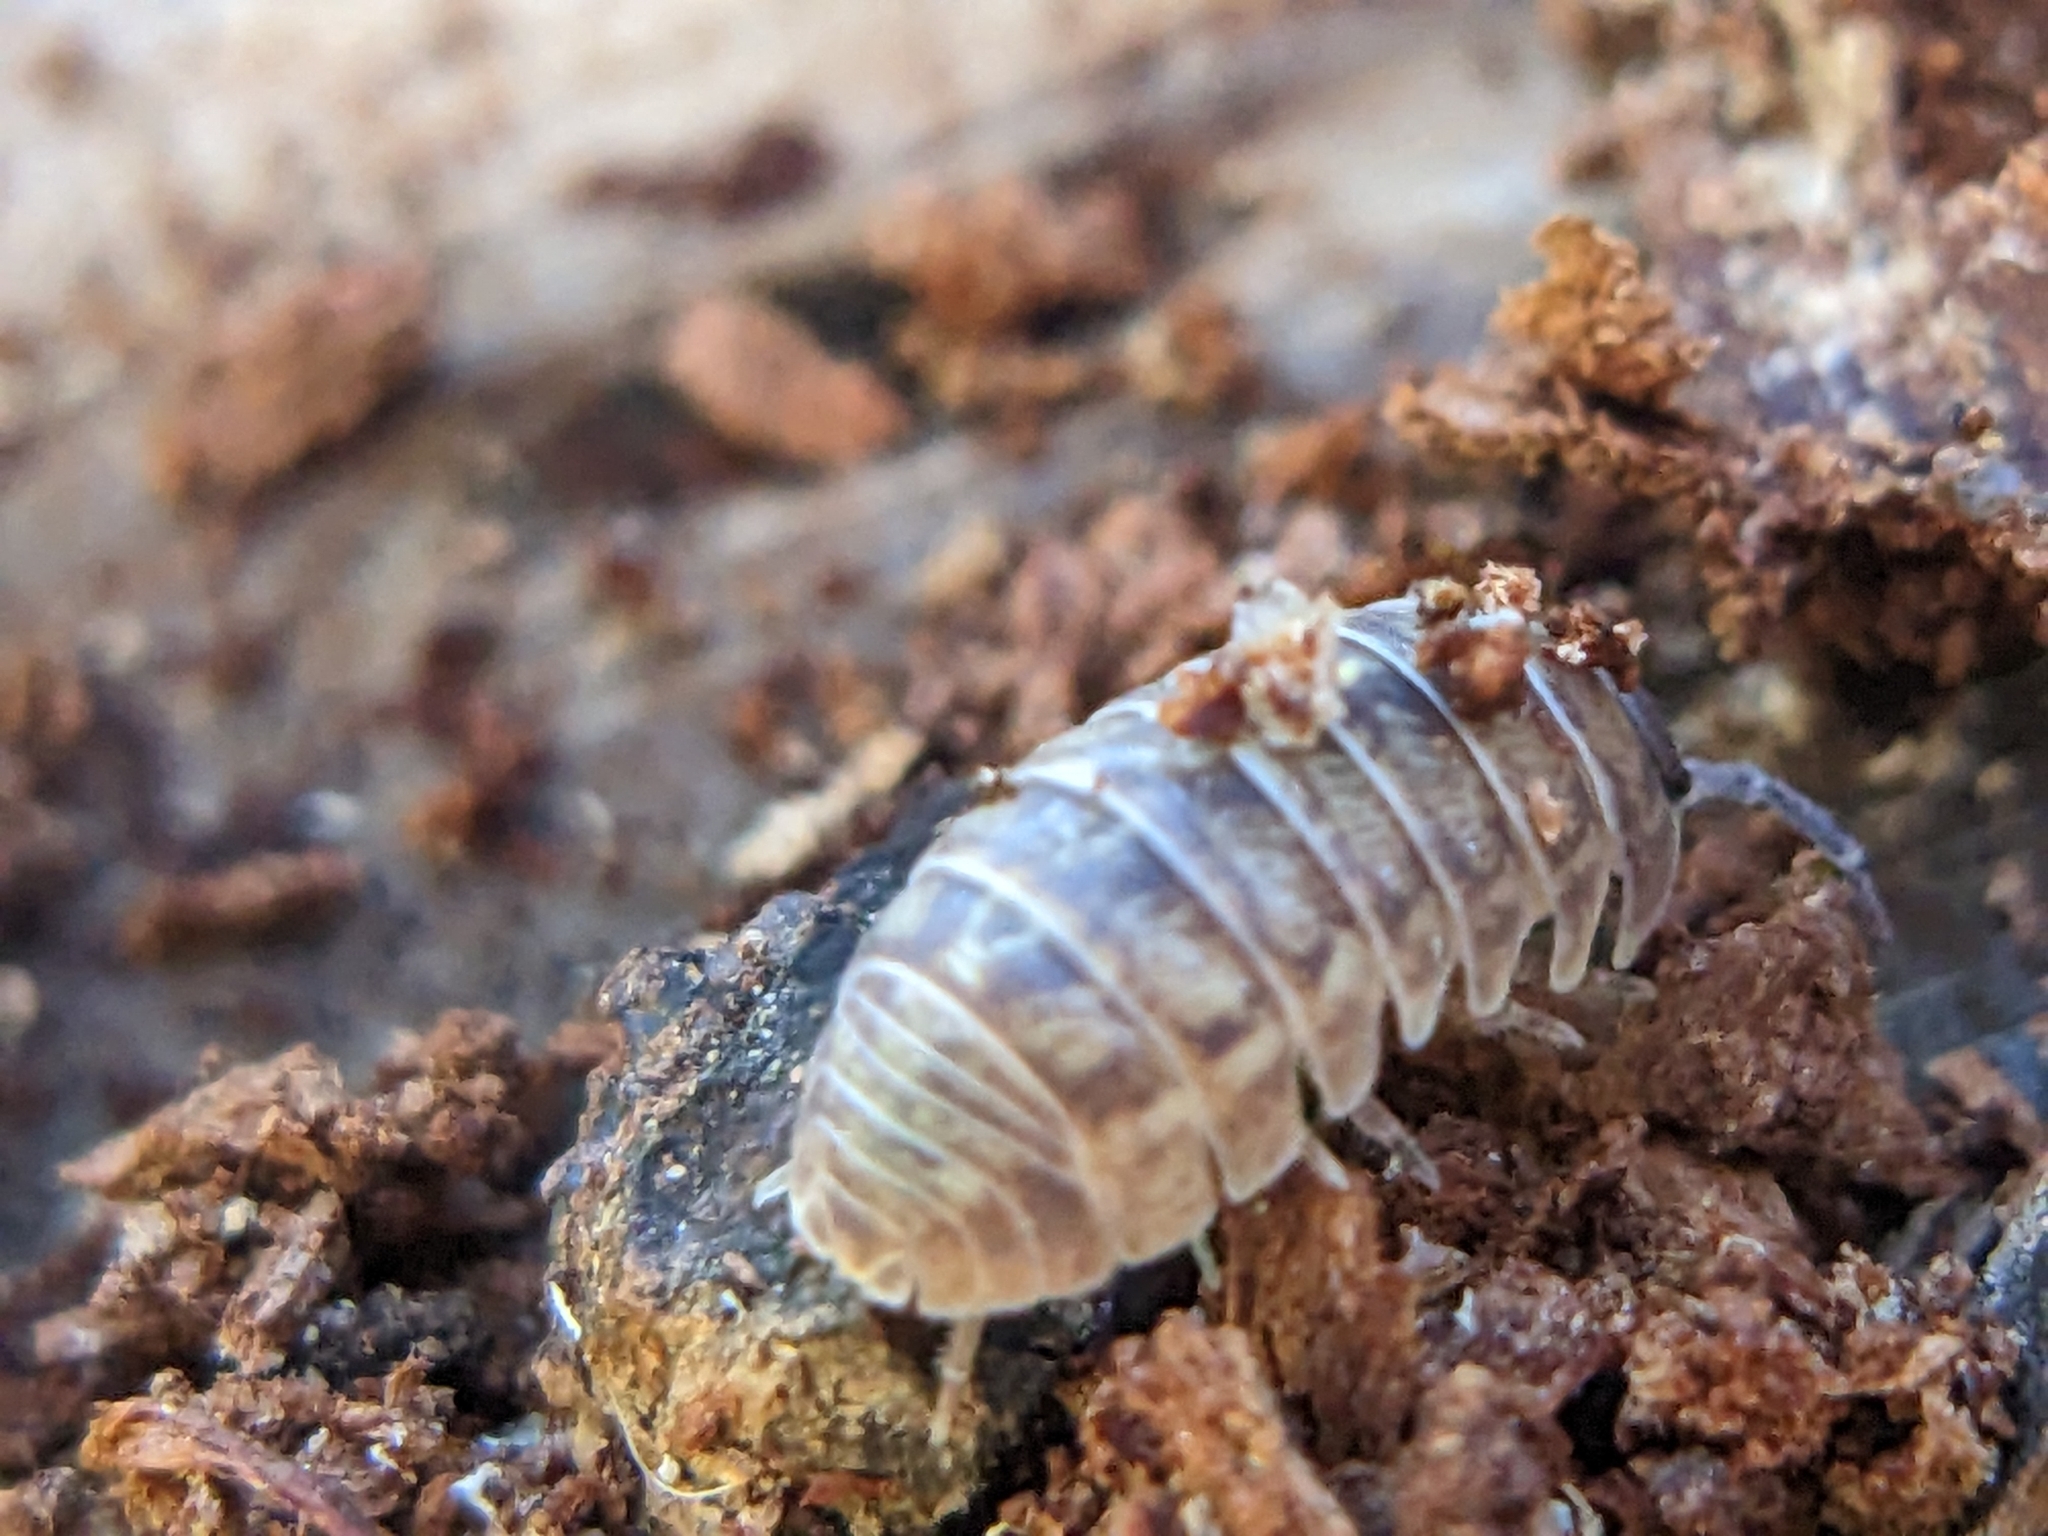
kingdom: Animalia
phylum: Arthropoda
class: Malacostraca
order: Isopoda
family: Armadillidiidae
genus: Armadillidium
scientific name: Armadillidium vulgare
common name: Common pill woodlouse
